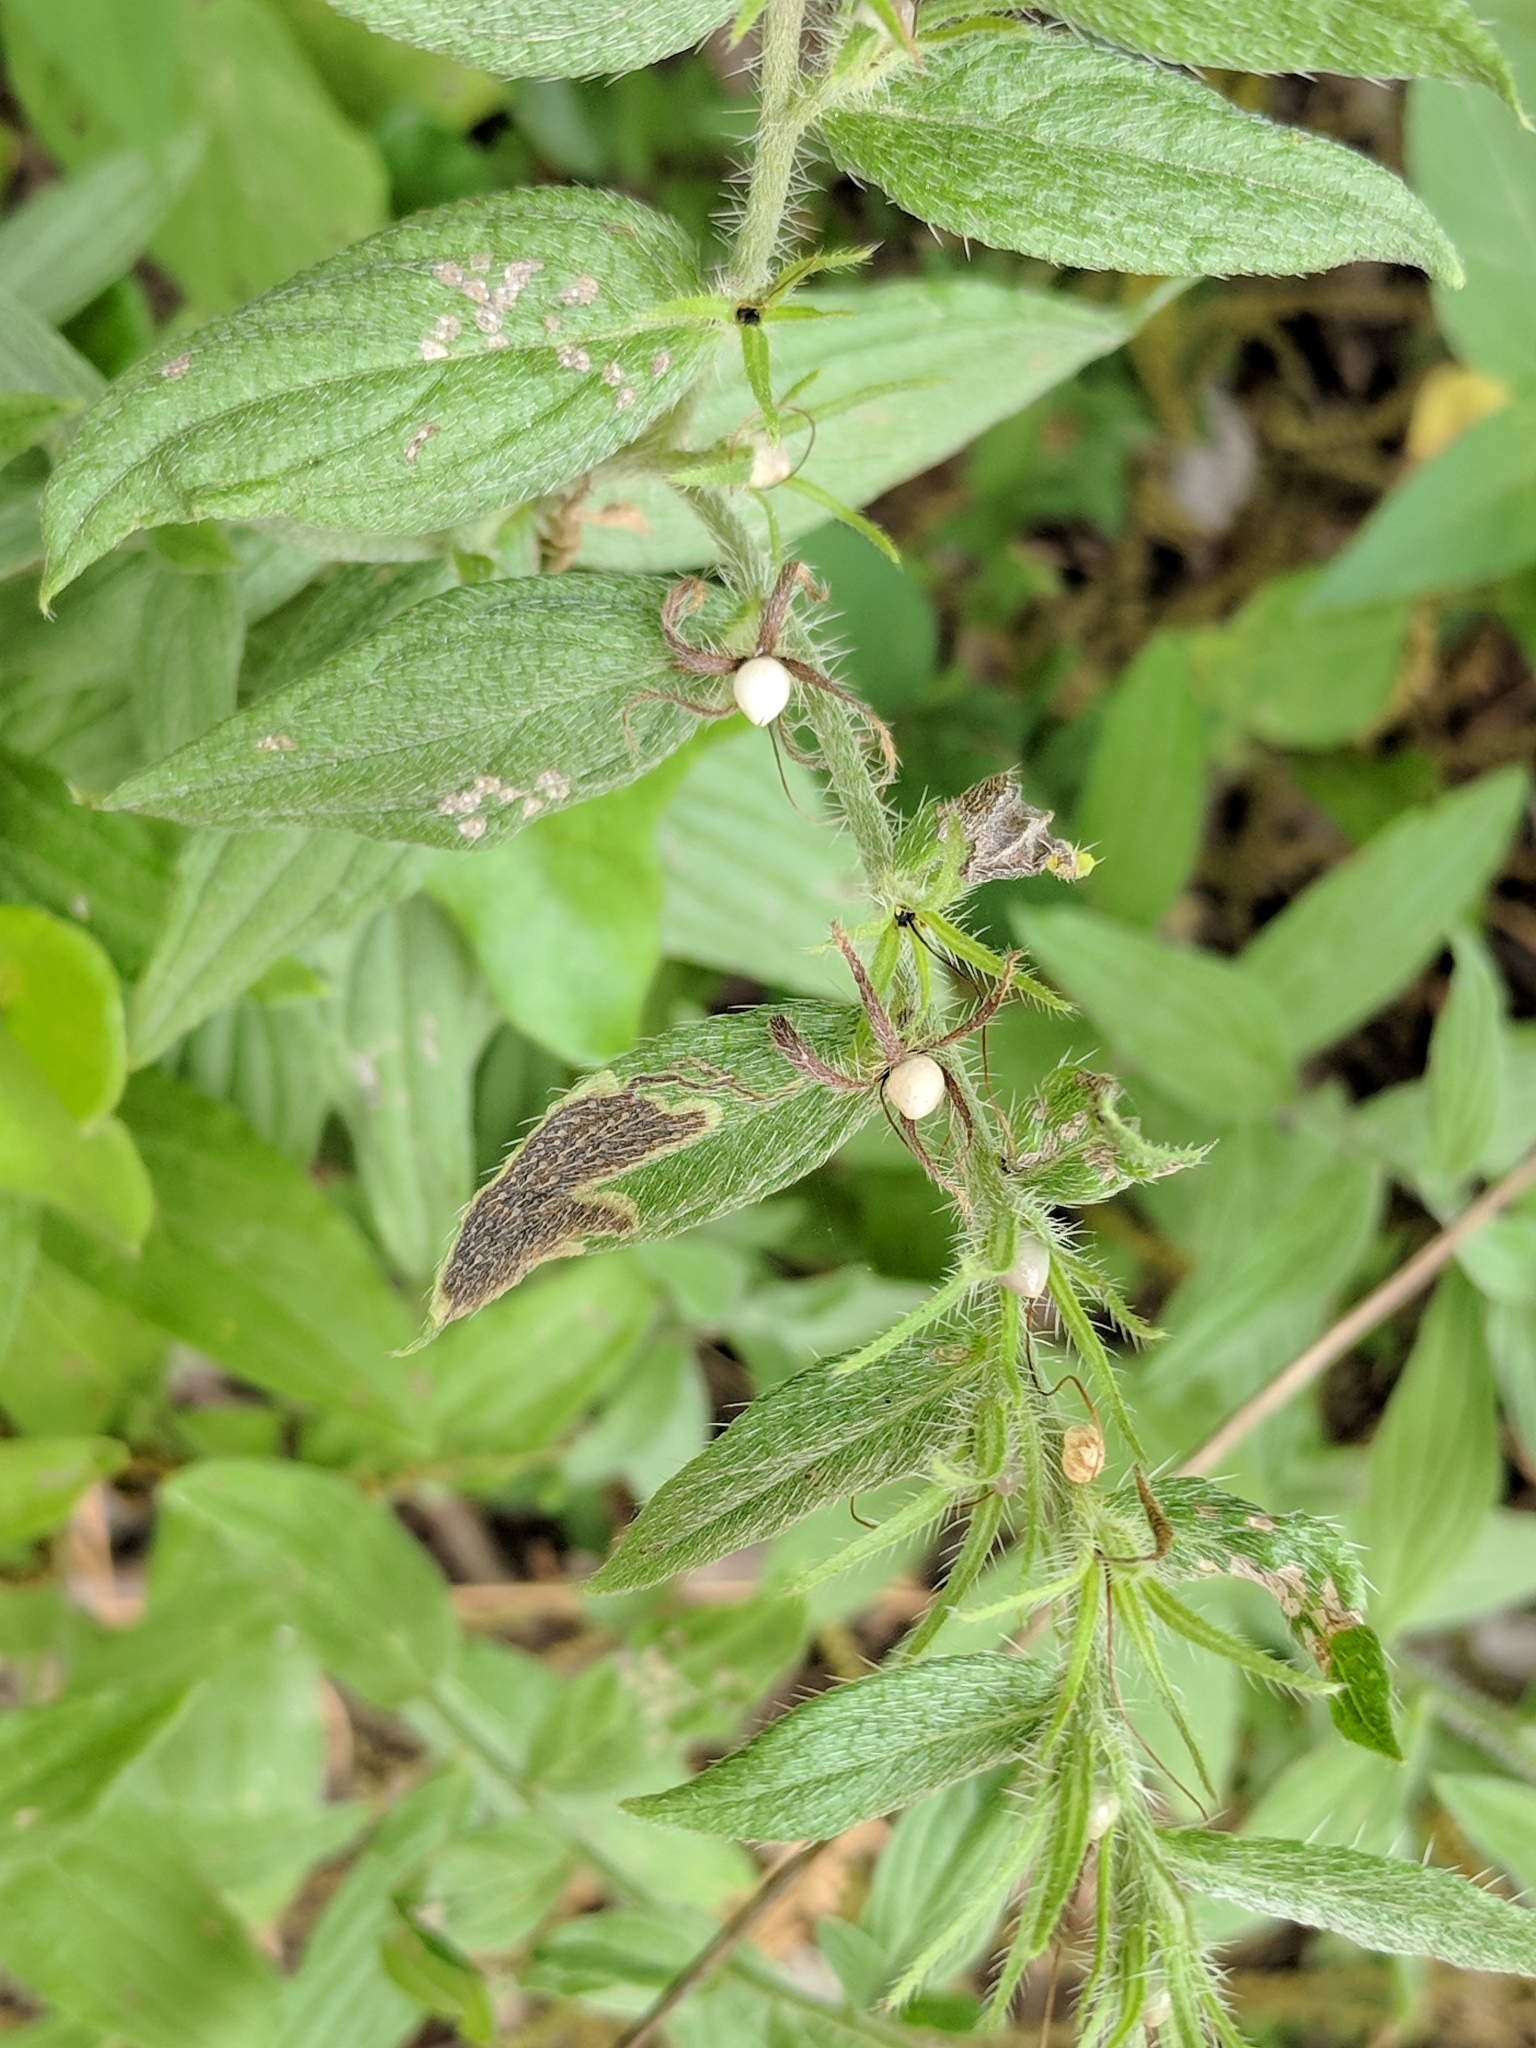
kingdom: Plantae
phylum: Tracheophyta
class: Magnoliopsida
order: Boraginales
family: Boraginaceae
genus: Lithospermum
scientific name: Lithospermum caroliniense
